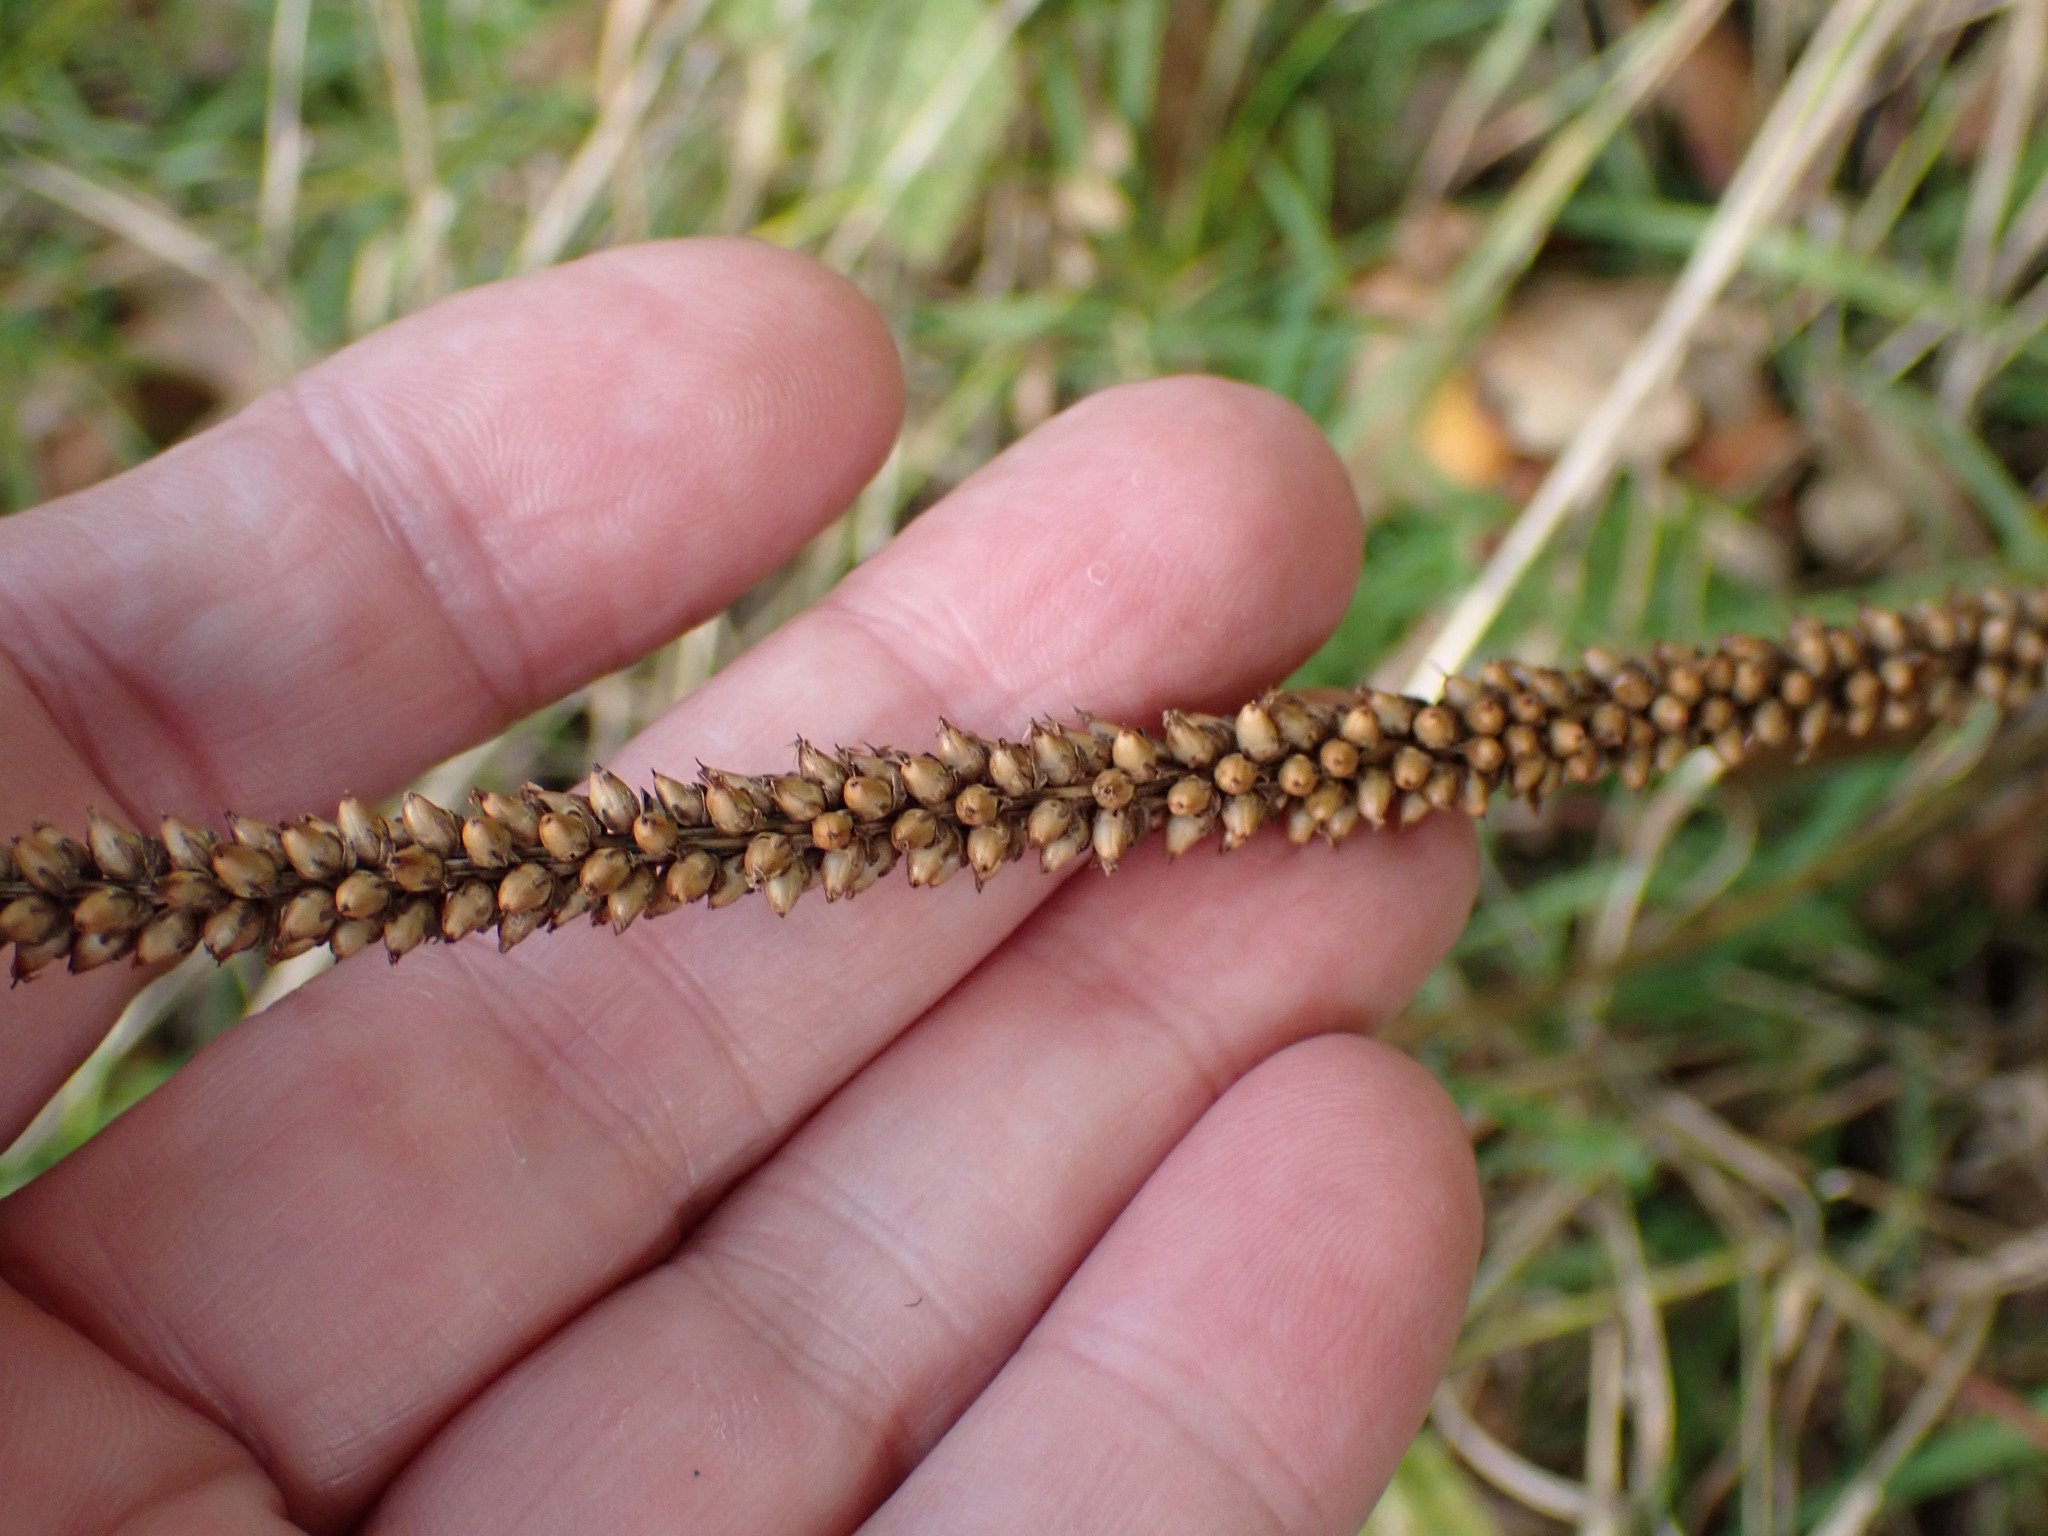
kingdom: Plantae
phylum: Tracheophyta
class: Magnoliopsida
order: Lamiales
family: Plantaginaceae
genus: Plantago
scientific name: Plantago major
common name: Common plantain
